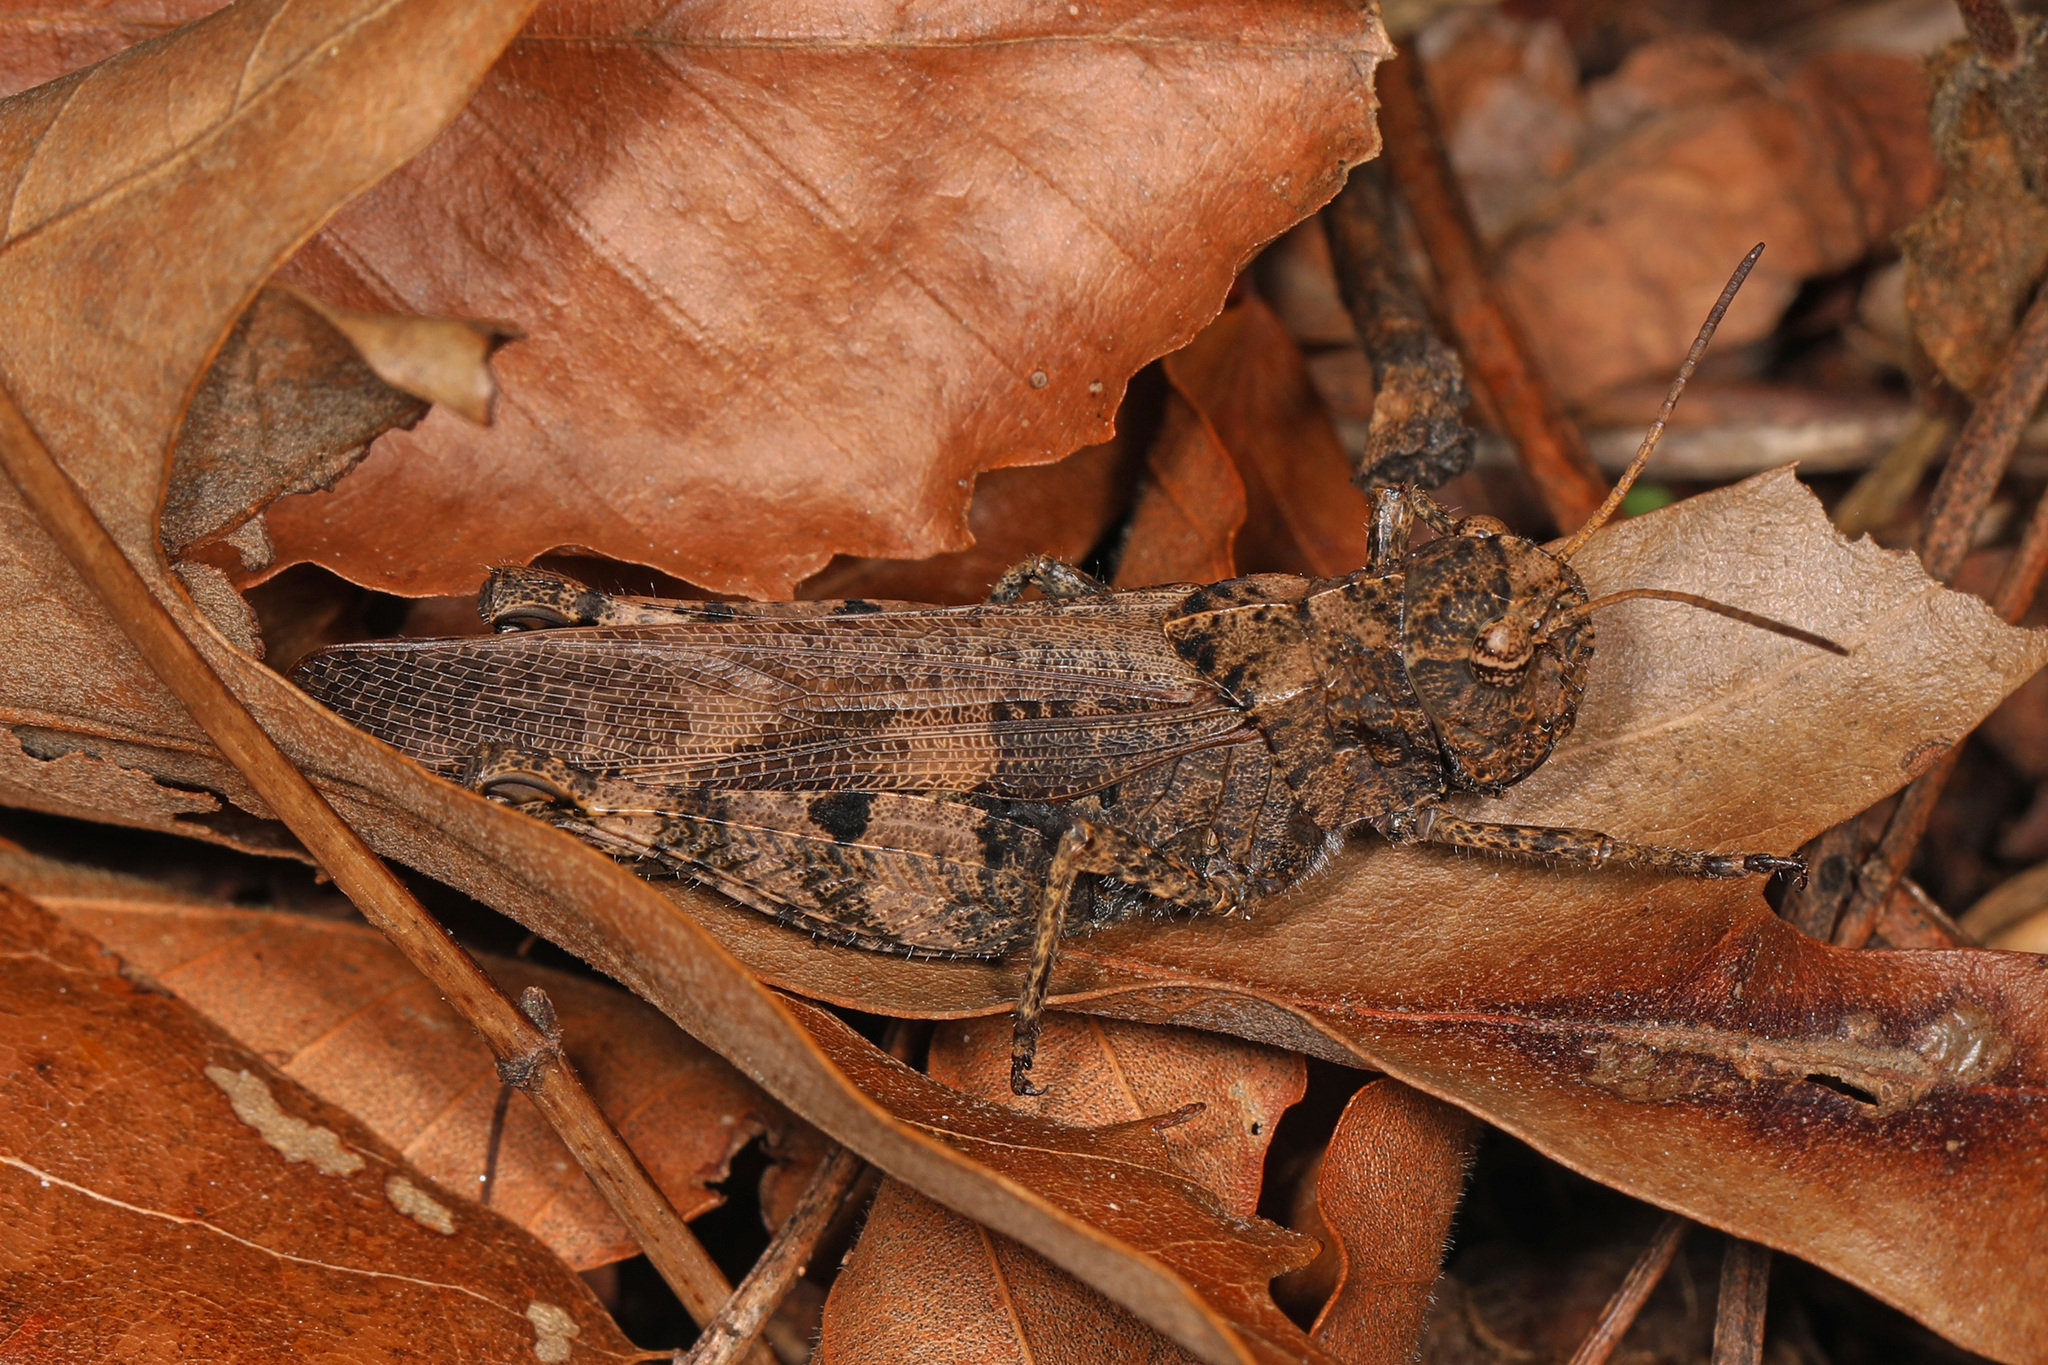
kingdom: Animalia
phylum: Arthropoda
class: Insecta
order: Orthoptera
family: Acrididae
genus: Encoptolophus
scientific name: Encoptolophus sordidus
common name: Dusky grasshopper
